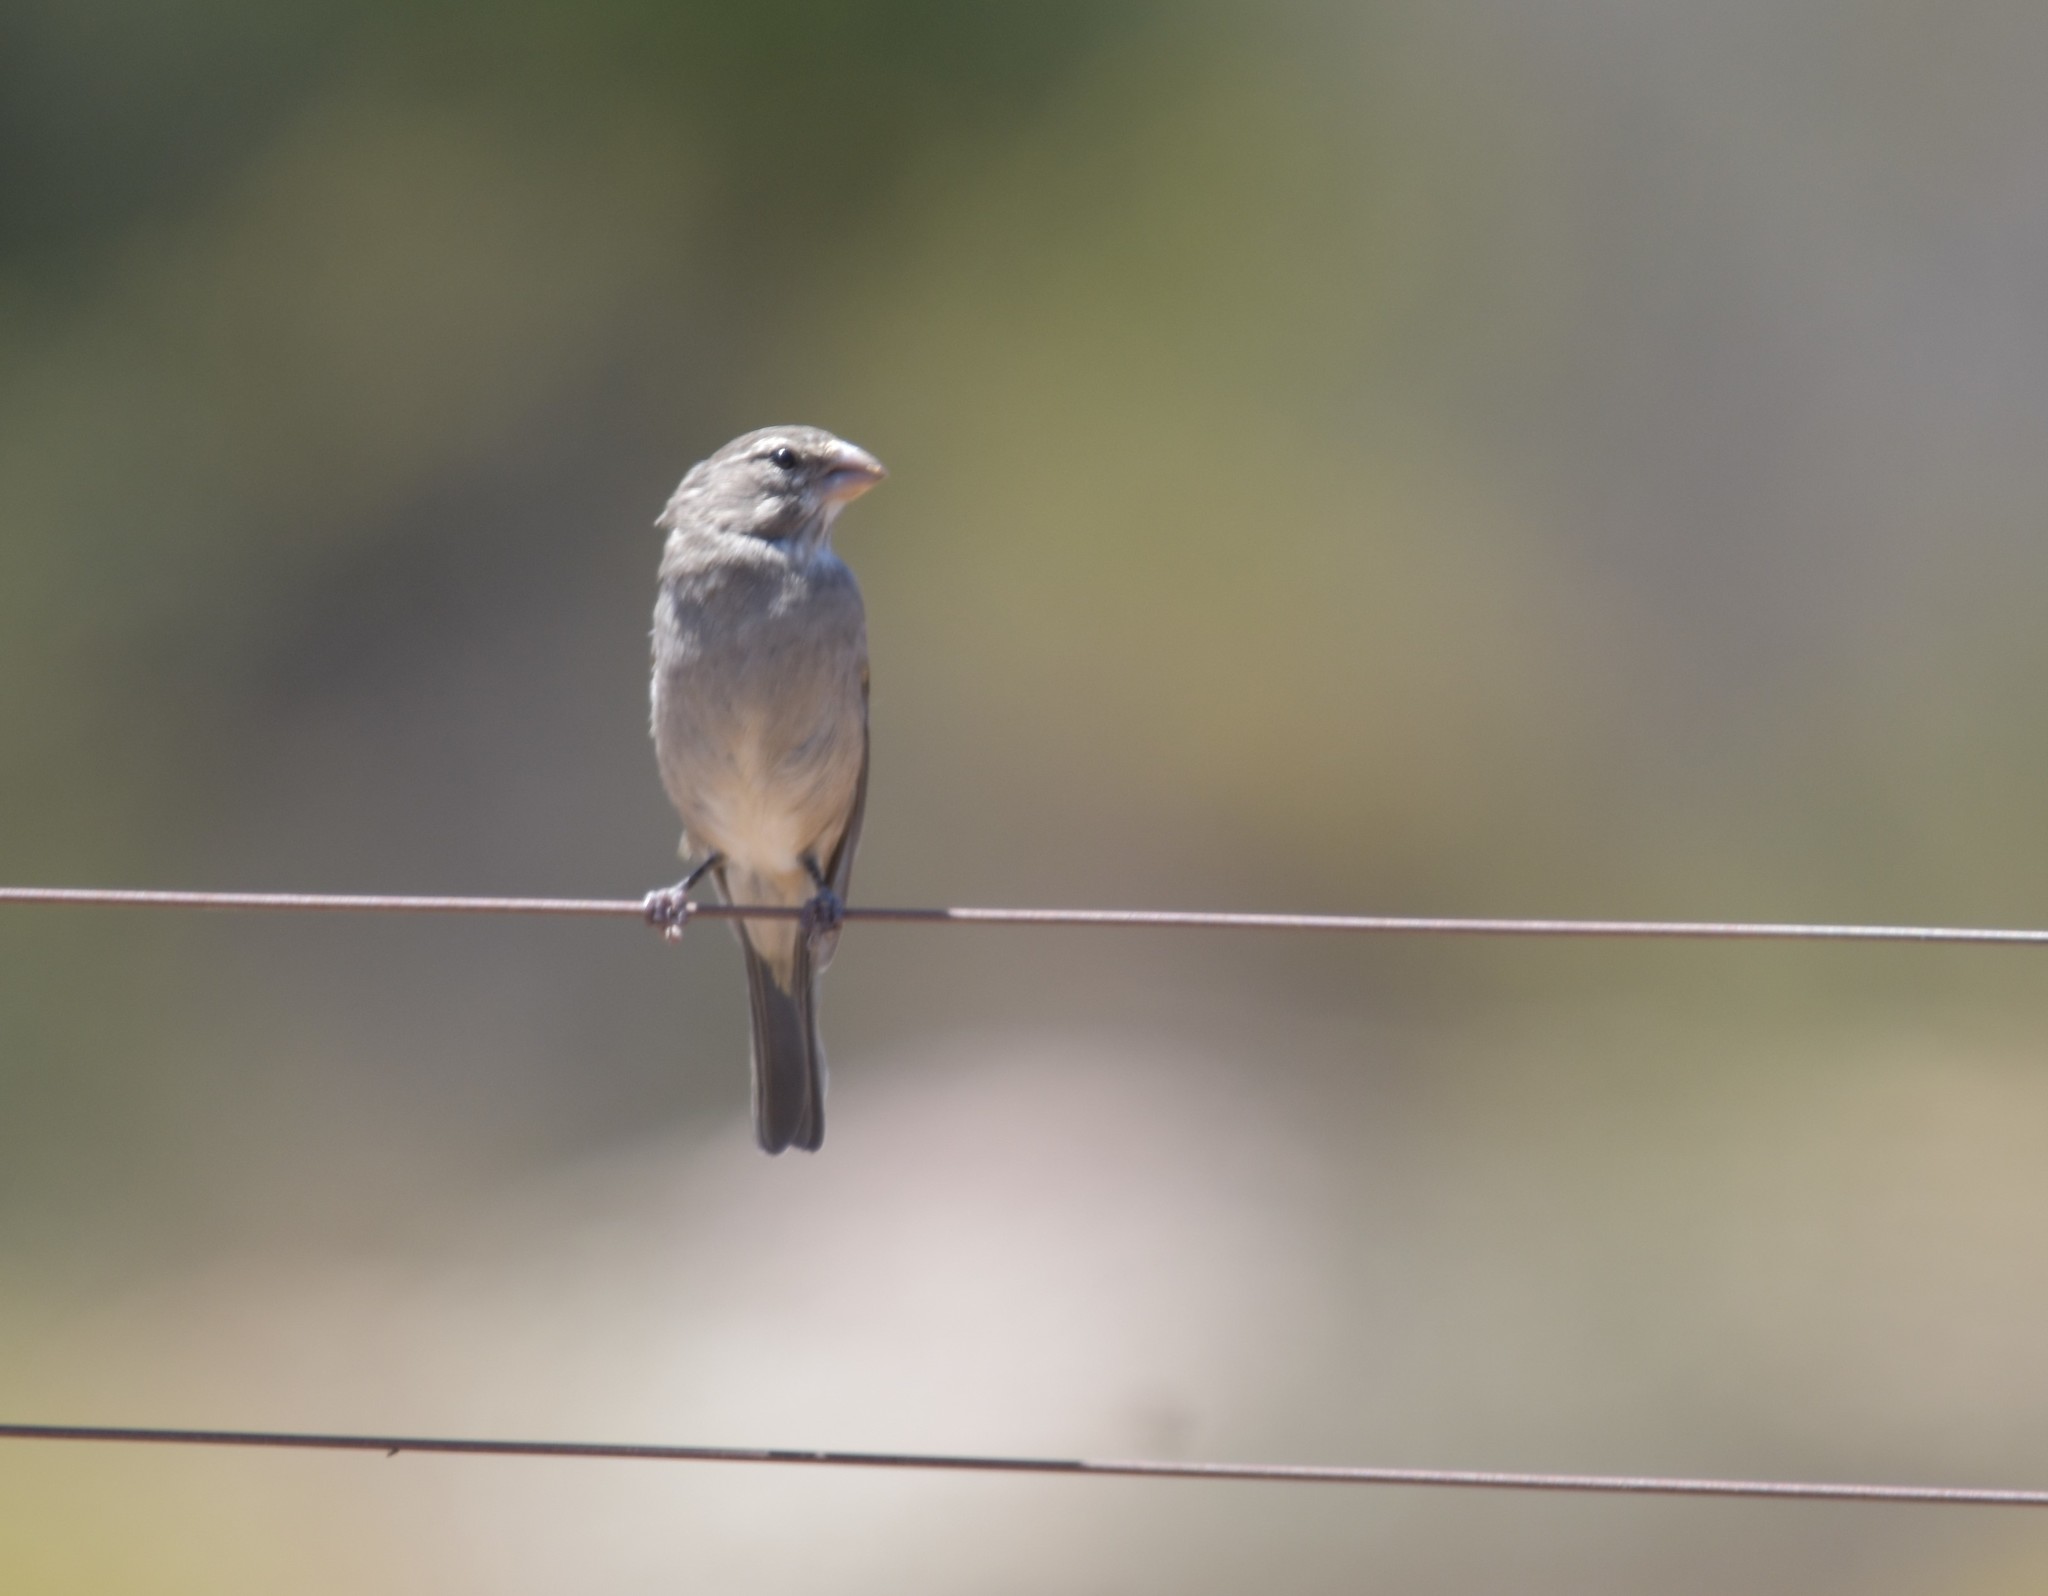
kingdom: Animalia
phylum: Chordata
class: Aves
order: Passeriformes
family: Fringillidae
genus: Crithagra
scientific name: Crithagra albogularis
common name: White-throated canary
